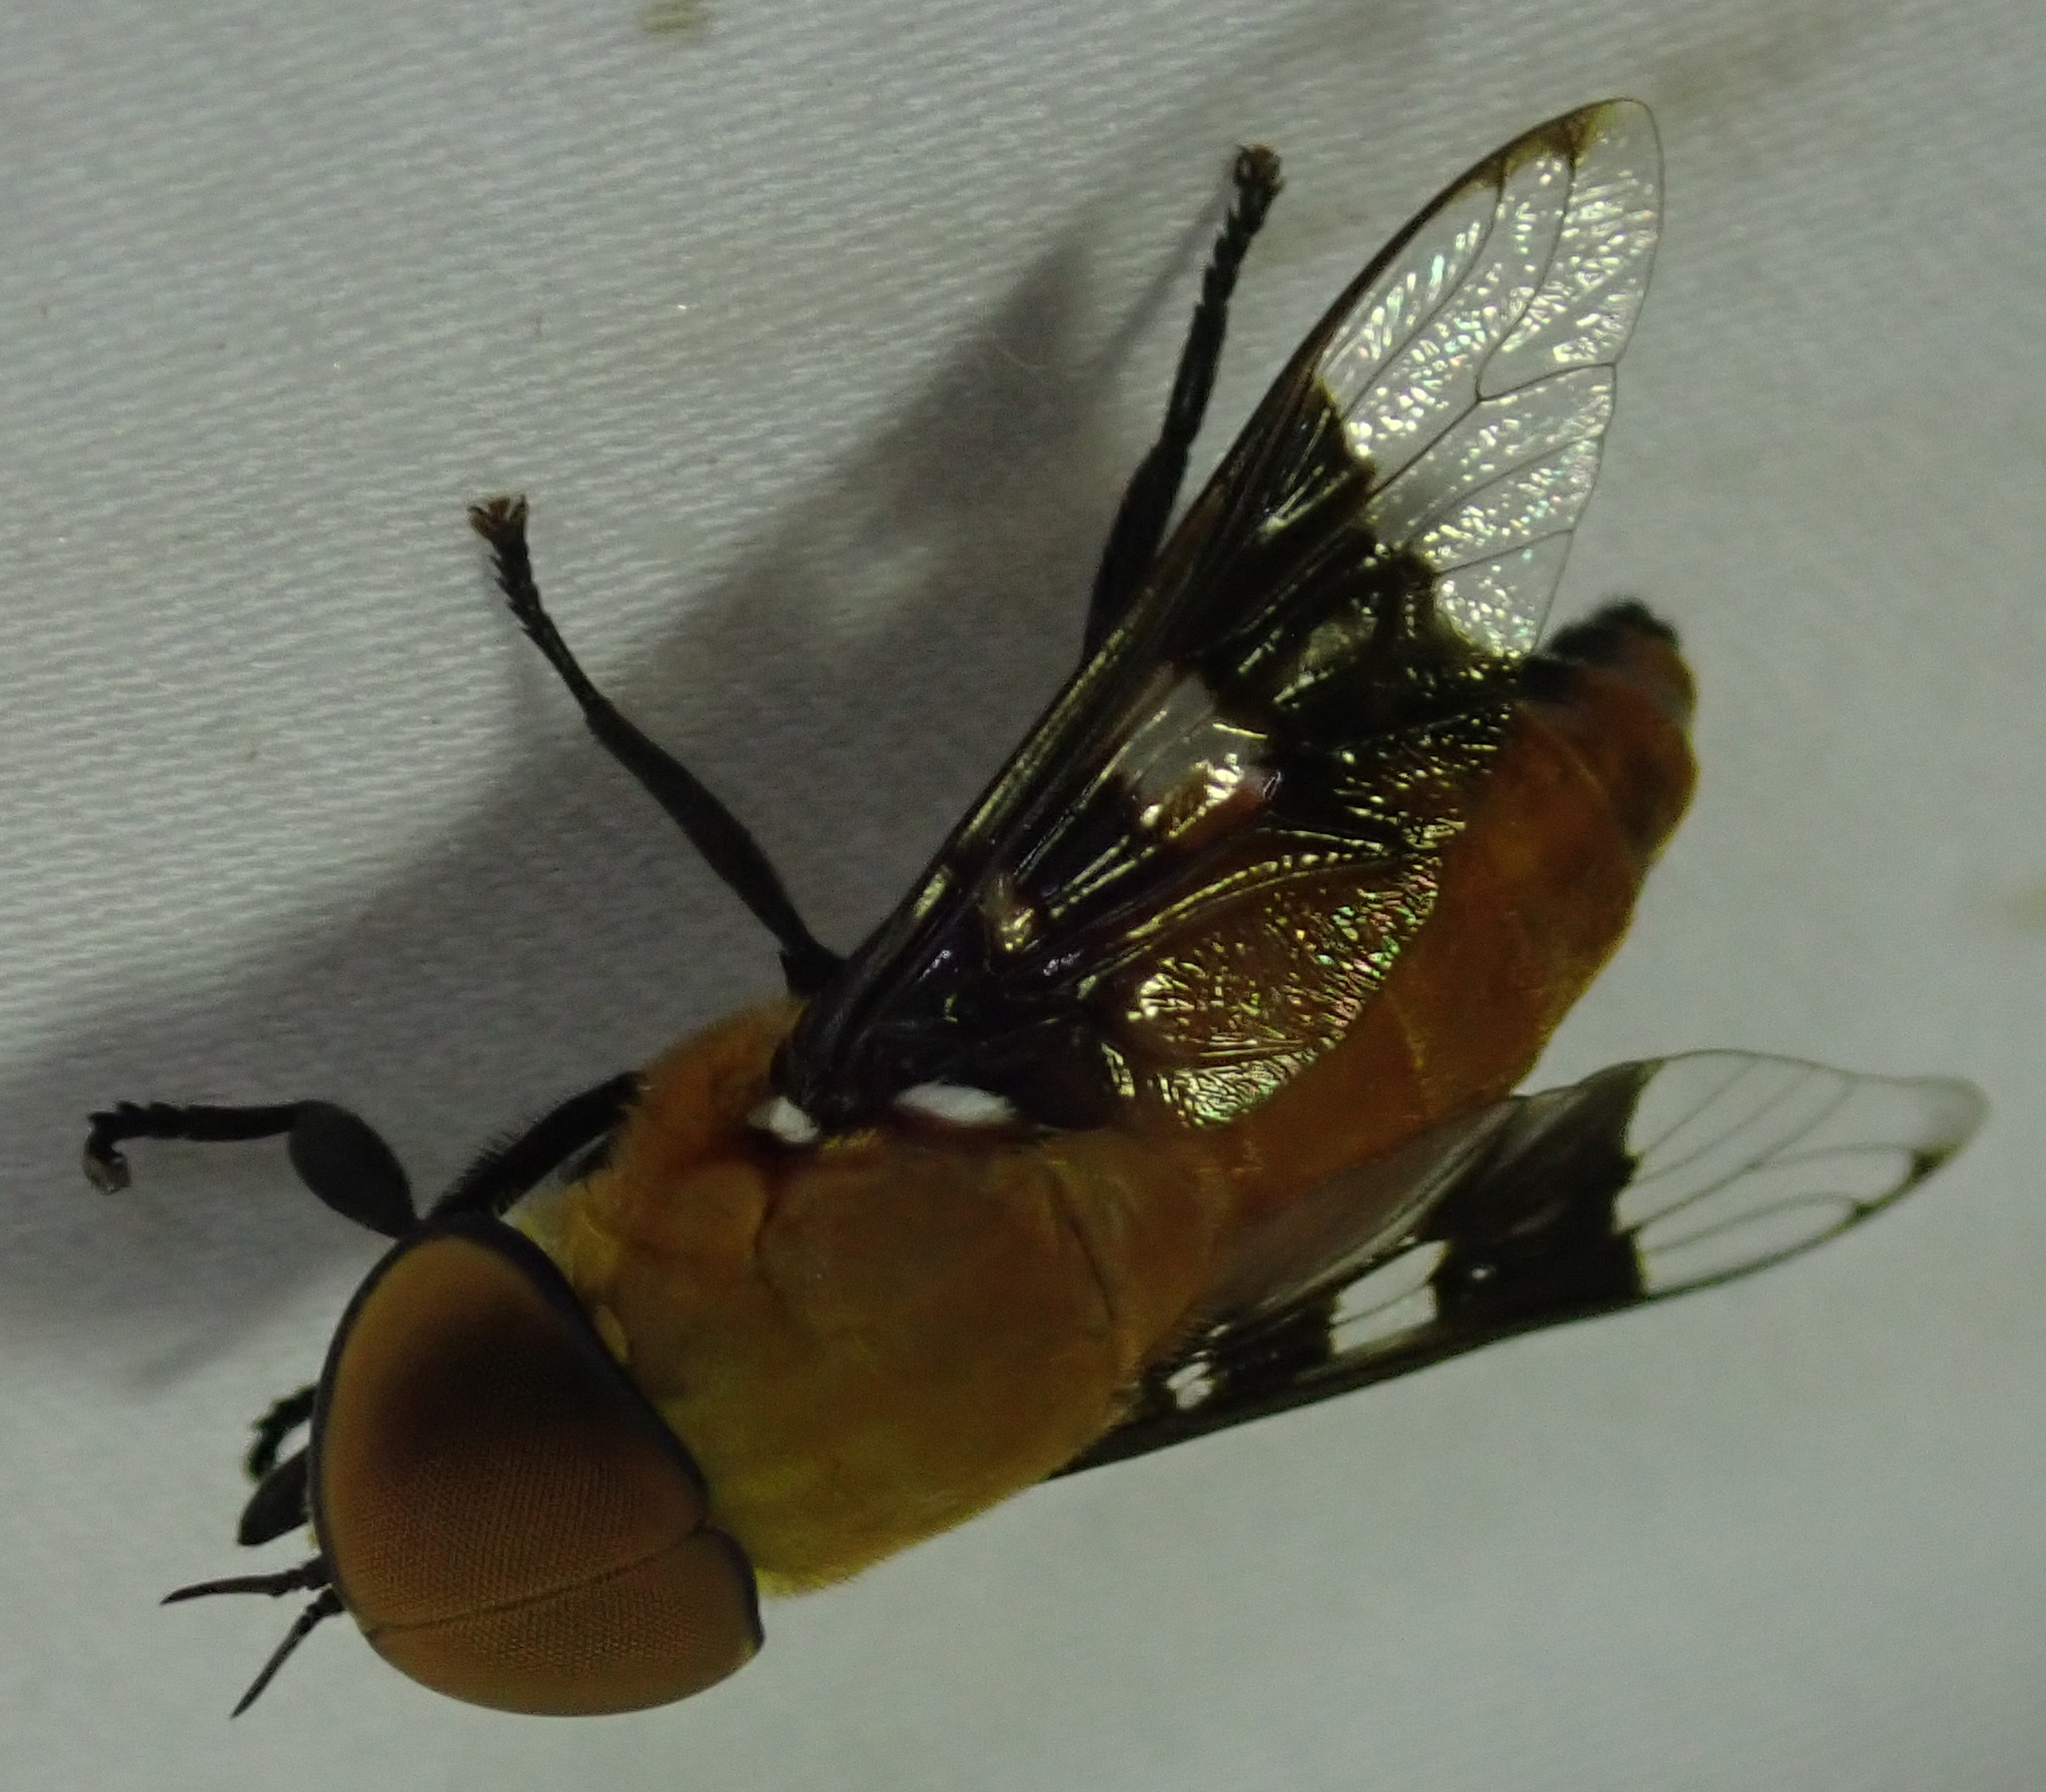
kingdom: Animalia
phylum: Arthropoda
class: Insecta
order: Diptera
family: Tabanidae
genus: Ancala
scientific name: Ancala africana
